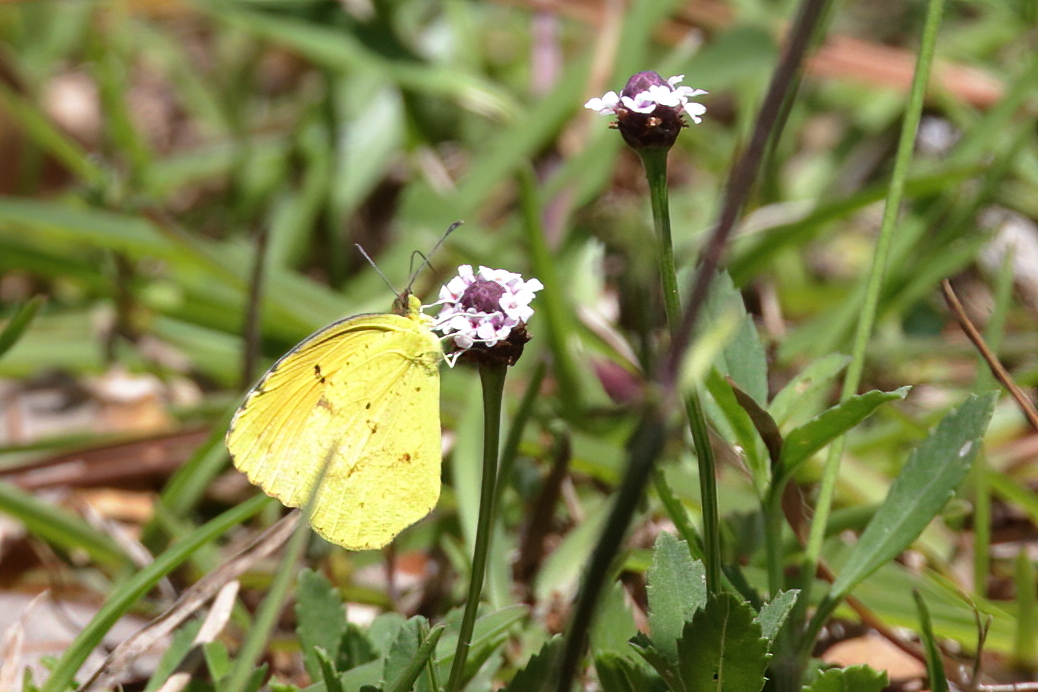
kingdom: Animalia
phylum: Arthropoda
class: Insecta
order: Lepidoptera
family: Pieridae
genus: Abaeis
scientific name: Abaeis nicippe
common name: Sleepy orange
